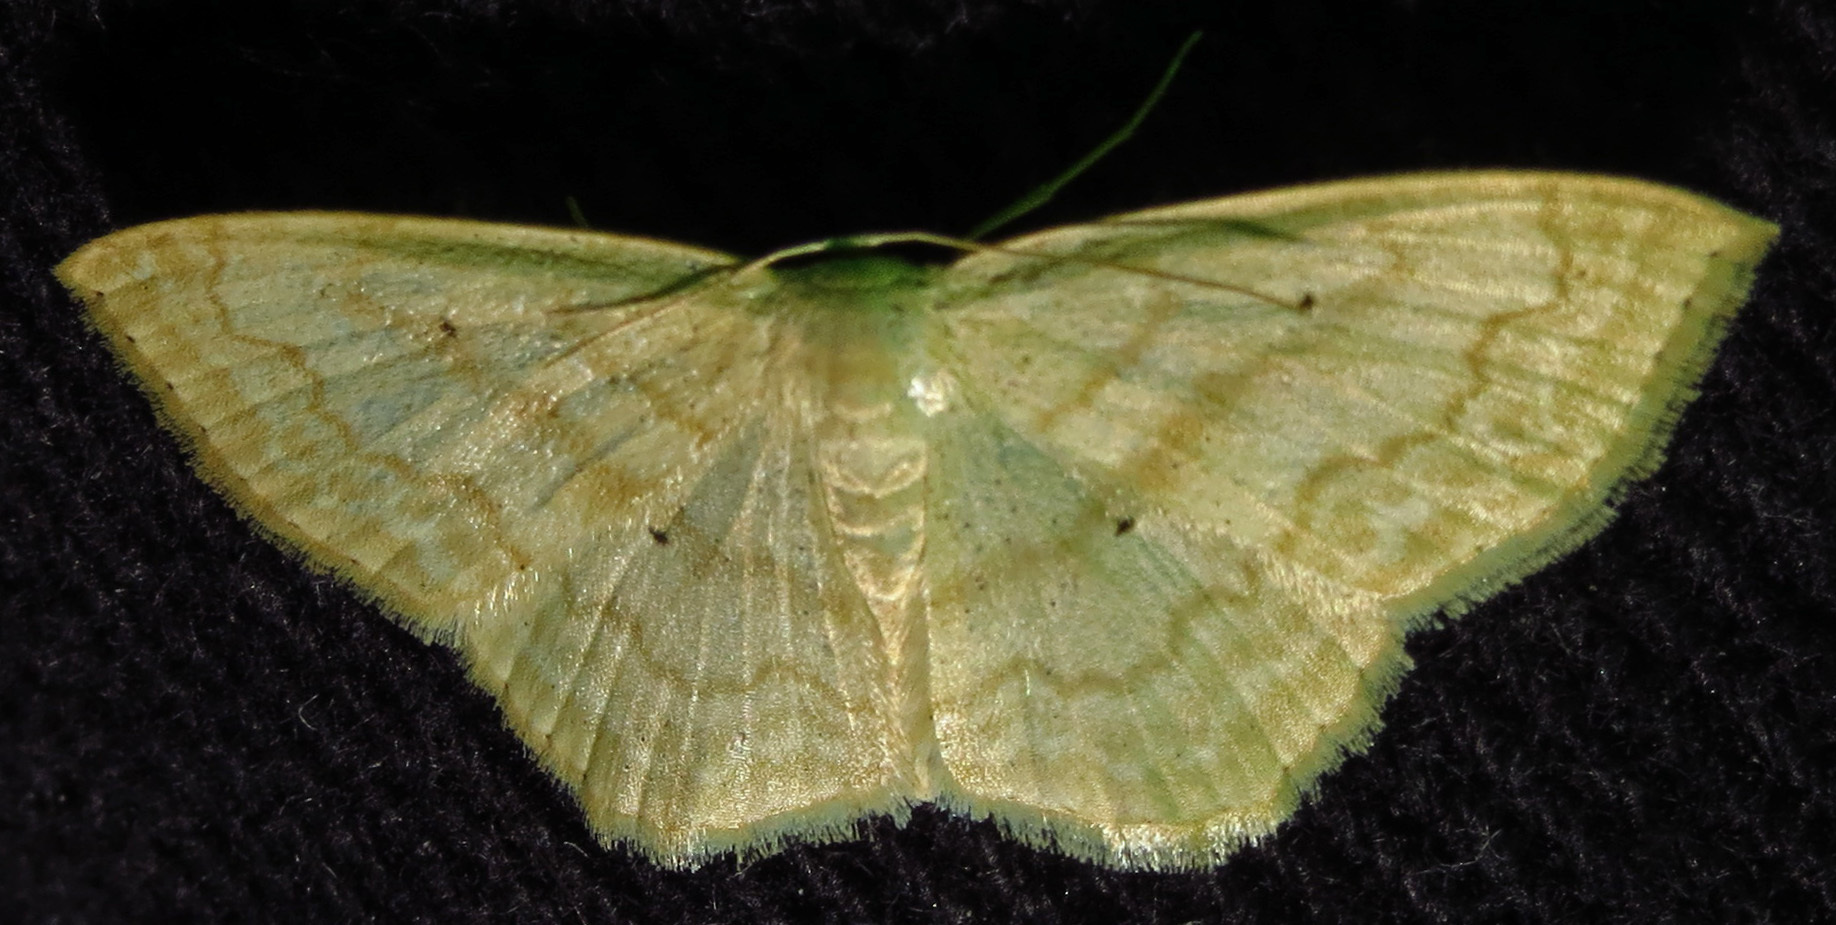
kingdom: Animalia
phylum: Arthropoda
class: Insecta
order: Lepidoptera
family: Geometridae
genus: Scopula
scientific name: Scopula limboundata
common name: Large lace border
